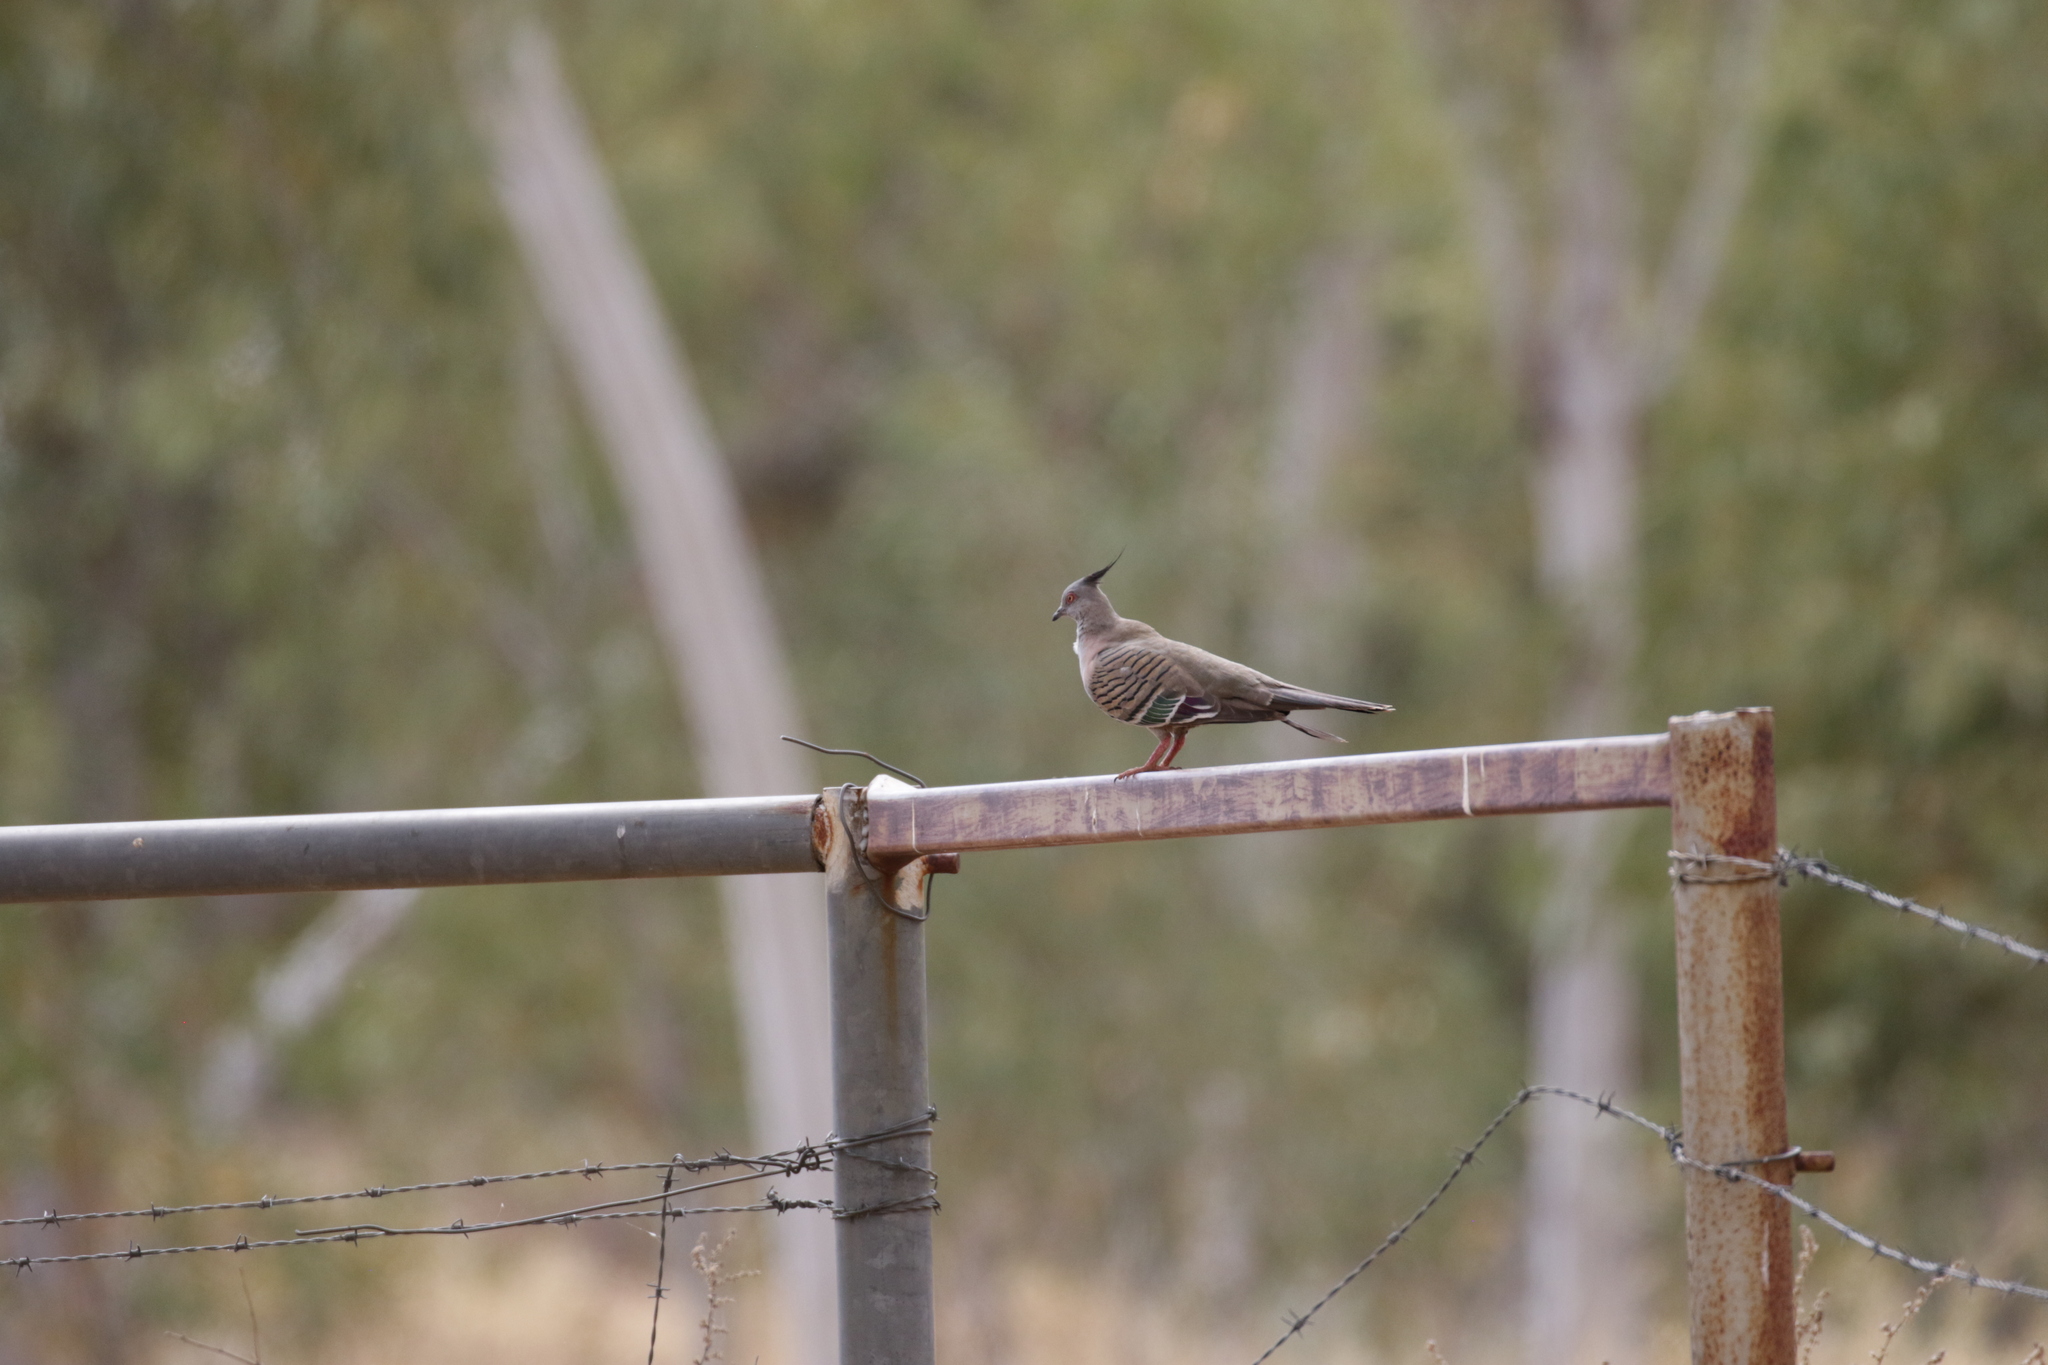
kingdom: Animalia
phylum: Chordata
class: Aves
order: Columbiformes
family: Columbidae
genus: Ocyphaps
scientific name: Ocyphaps lophotes
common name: Crested pigeon
